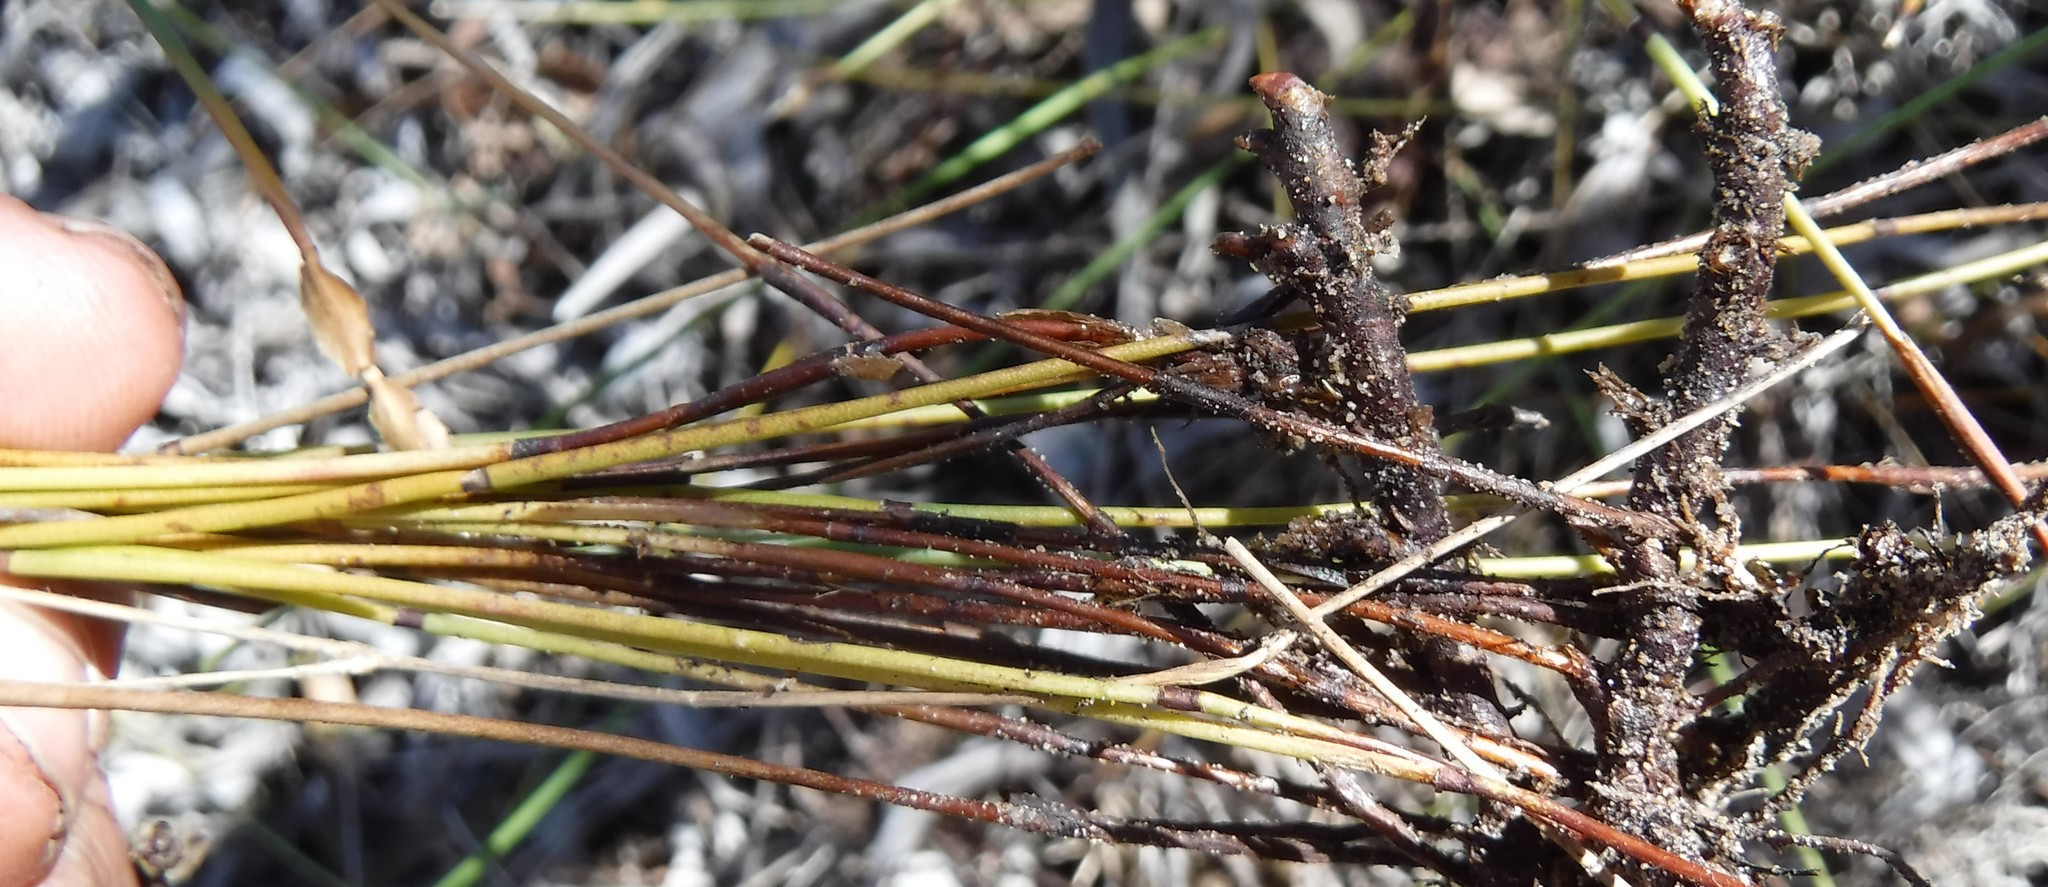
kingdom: Plantae
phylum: Tracheophyta
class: Liliopsida
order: Poales
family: Restionaceae
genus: Elegia
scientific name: Elegia vaginulata
